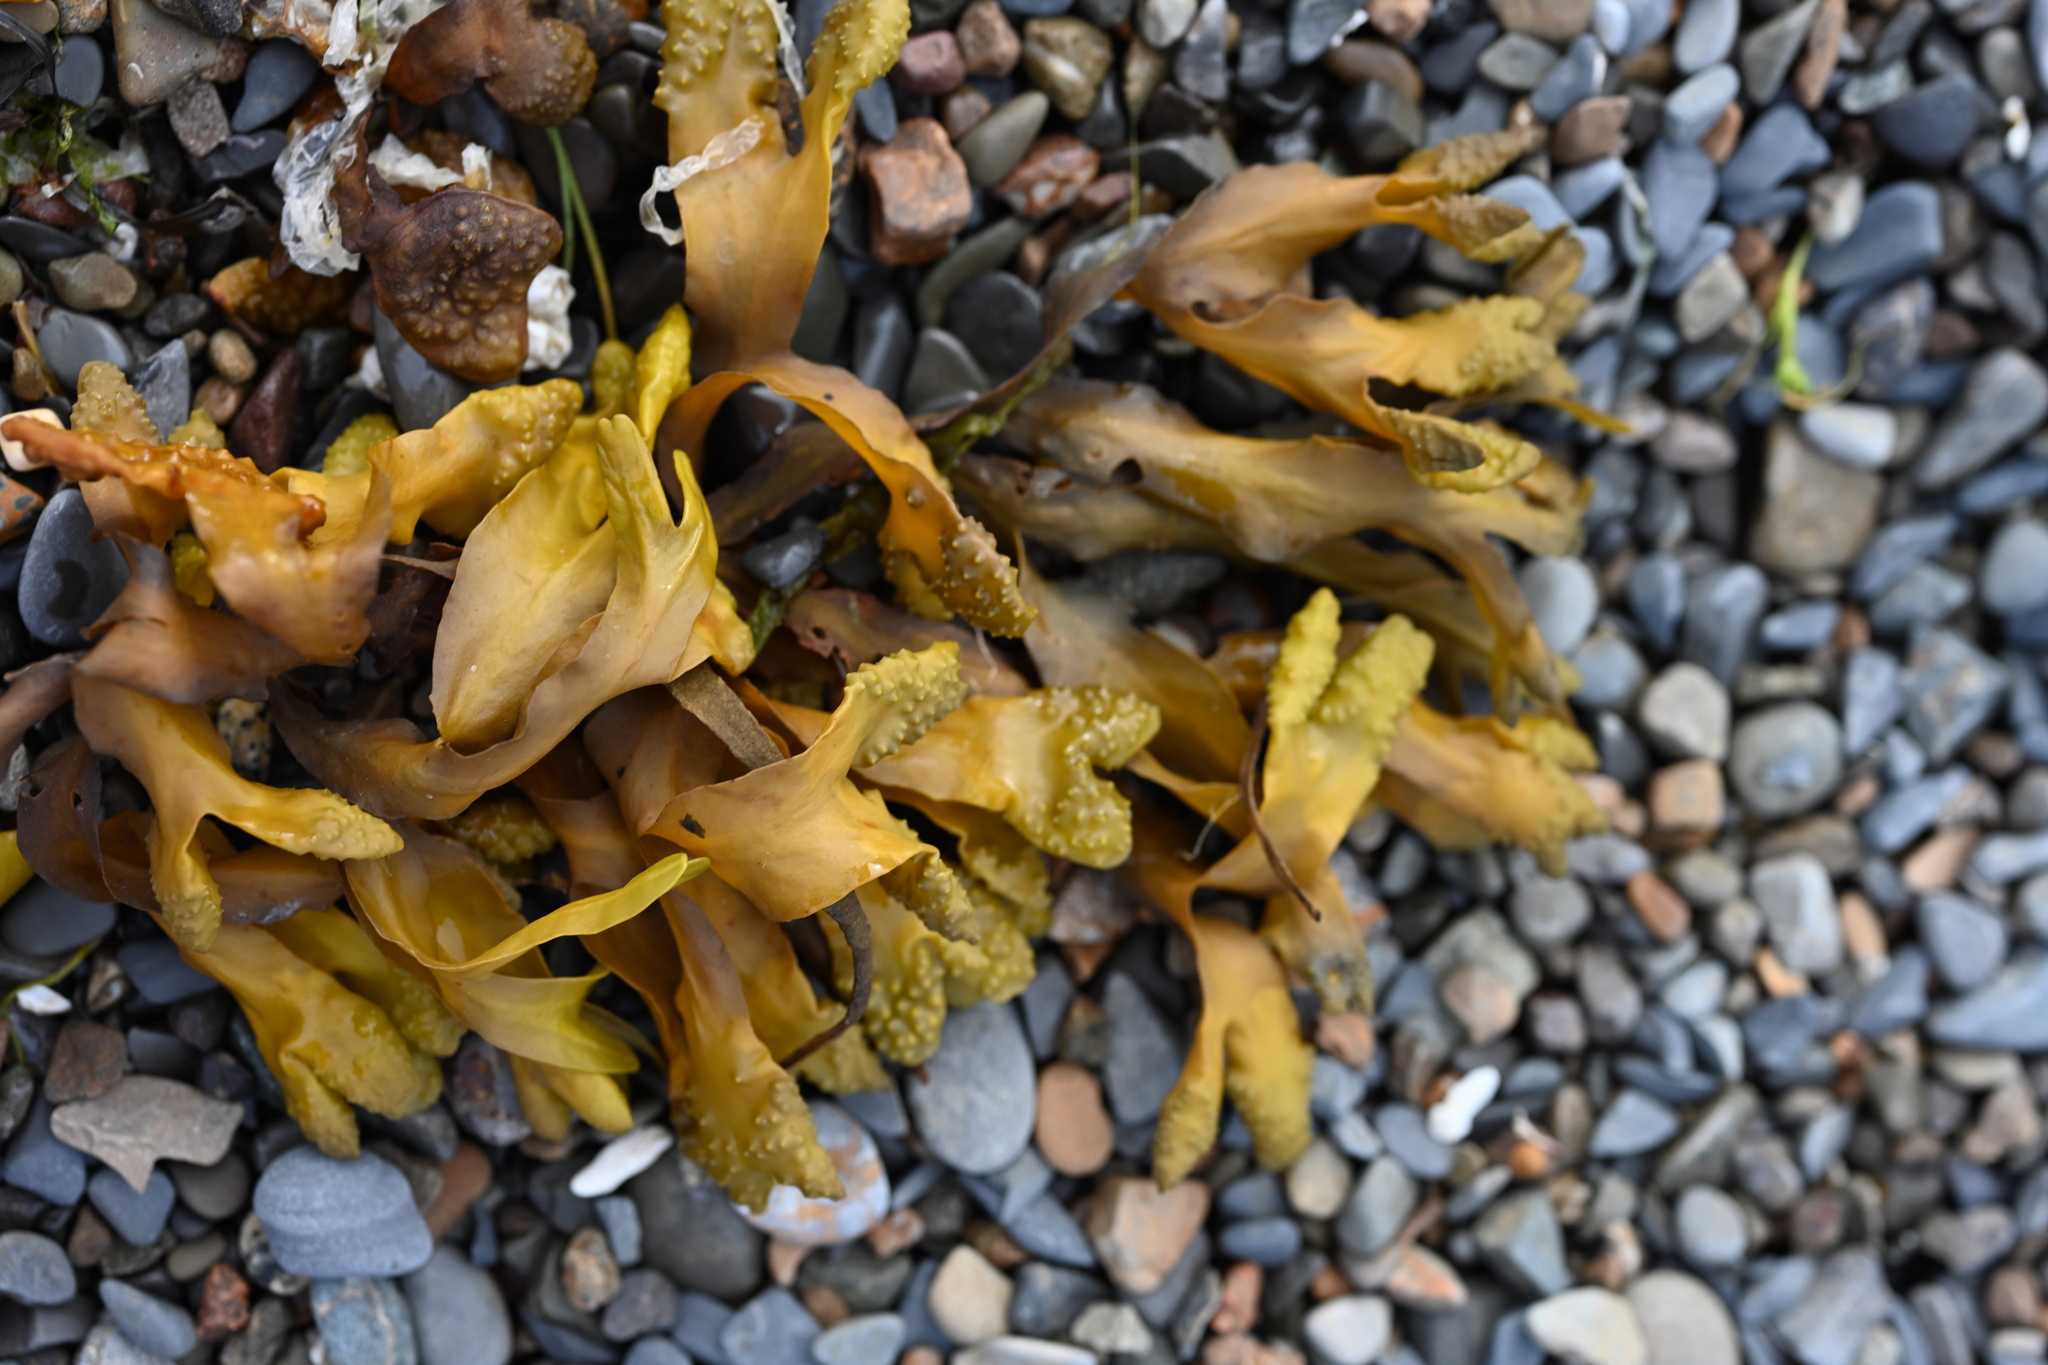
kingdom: Chromista
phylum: Ochrophyta
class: Phaeophyceae
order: Fucales
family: Fucaceae
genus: Fucus
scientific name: Fucus distichus
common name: Rockweed
